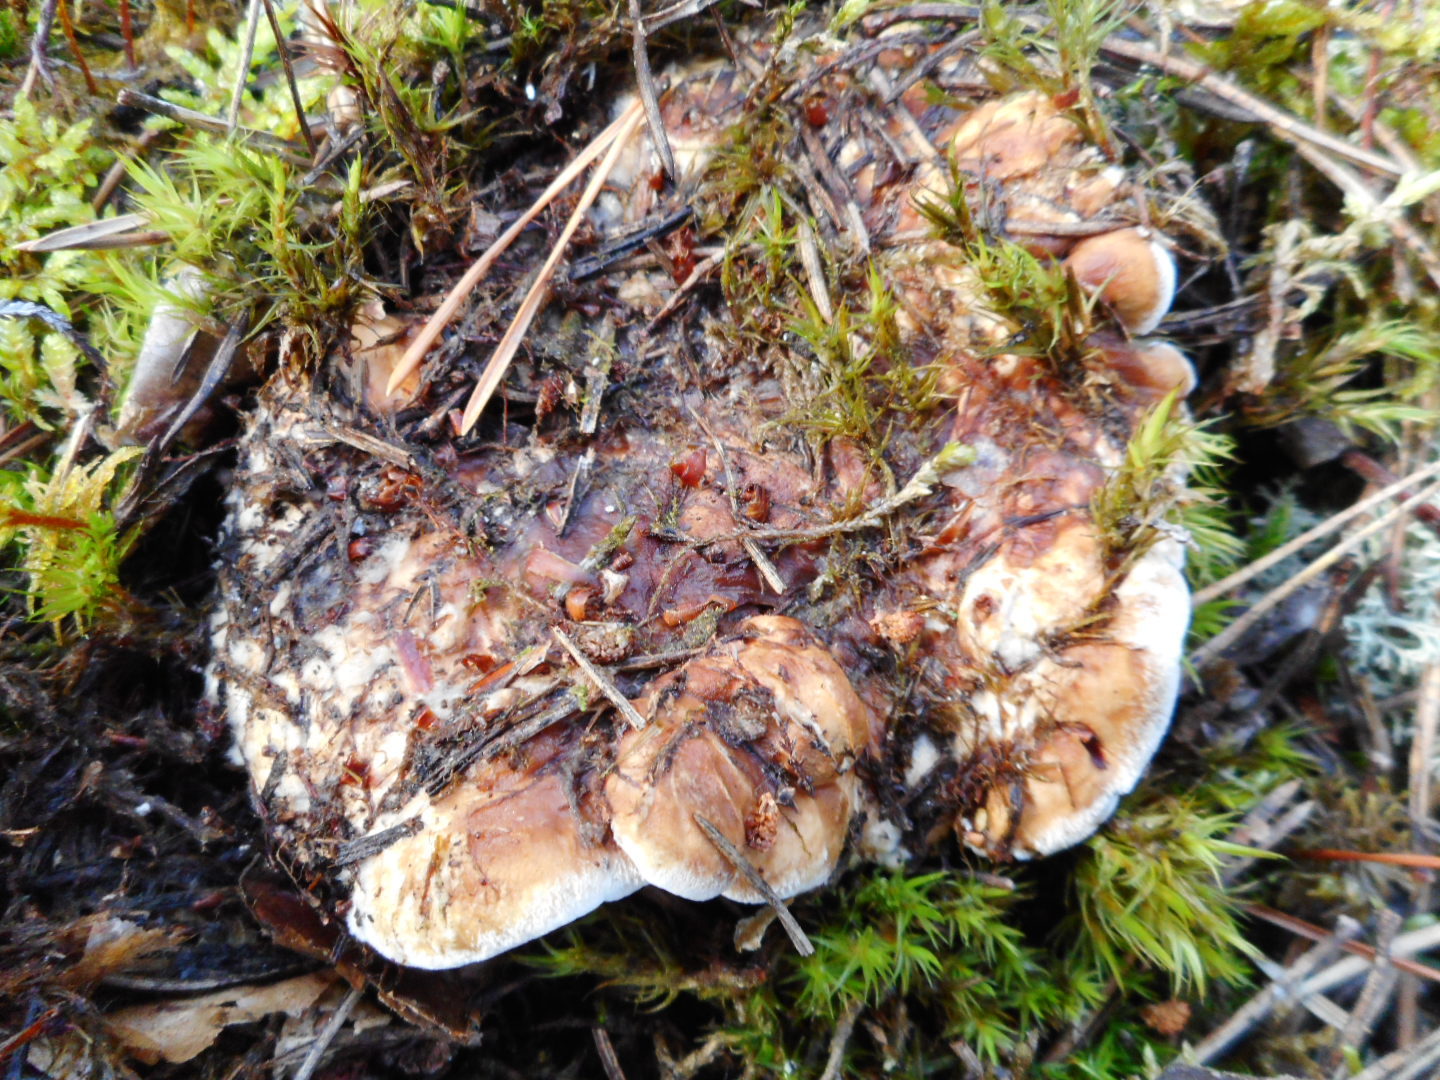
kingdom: Fungi
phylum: Basidiomycota
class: Agaricomycetes
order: Thelephorales
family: Thelephoraceae
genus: Phellodon
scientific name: Phellodon fuligineoalbus
